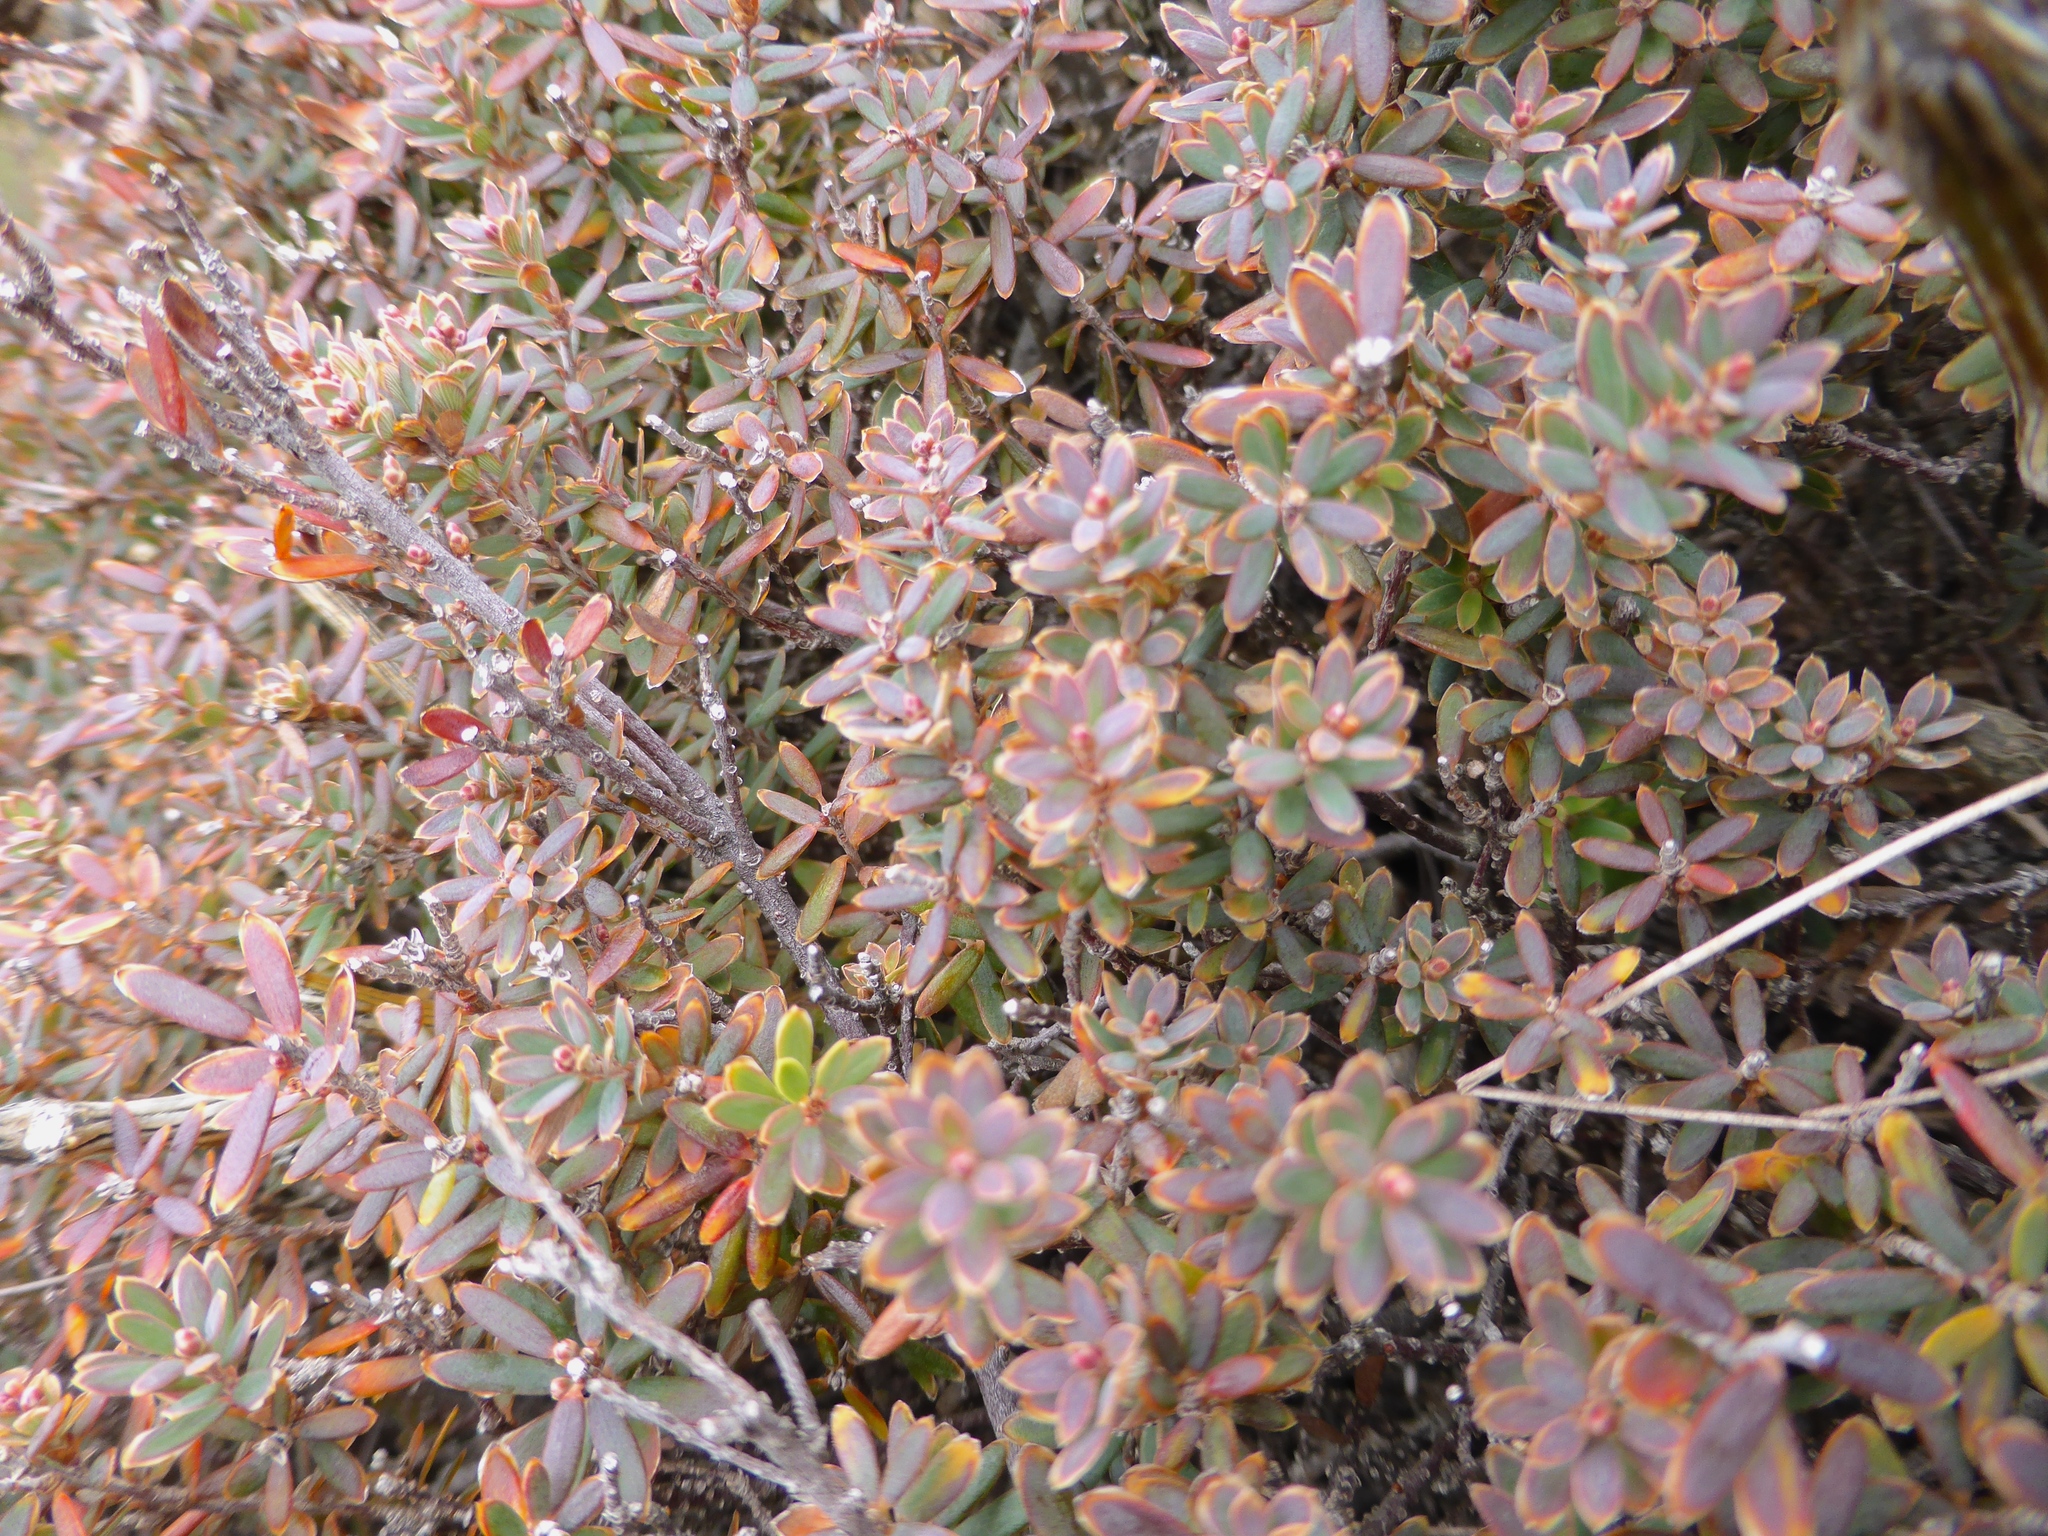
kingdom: Plantae
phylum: Tracheophyta
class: Magnoliopsida
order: Ericales
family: Ericaceae
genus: Acrothamnus
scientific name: Acrothamnus colensoi
